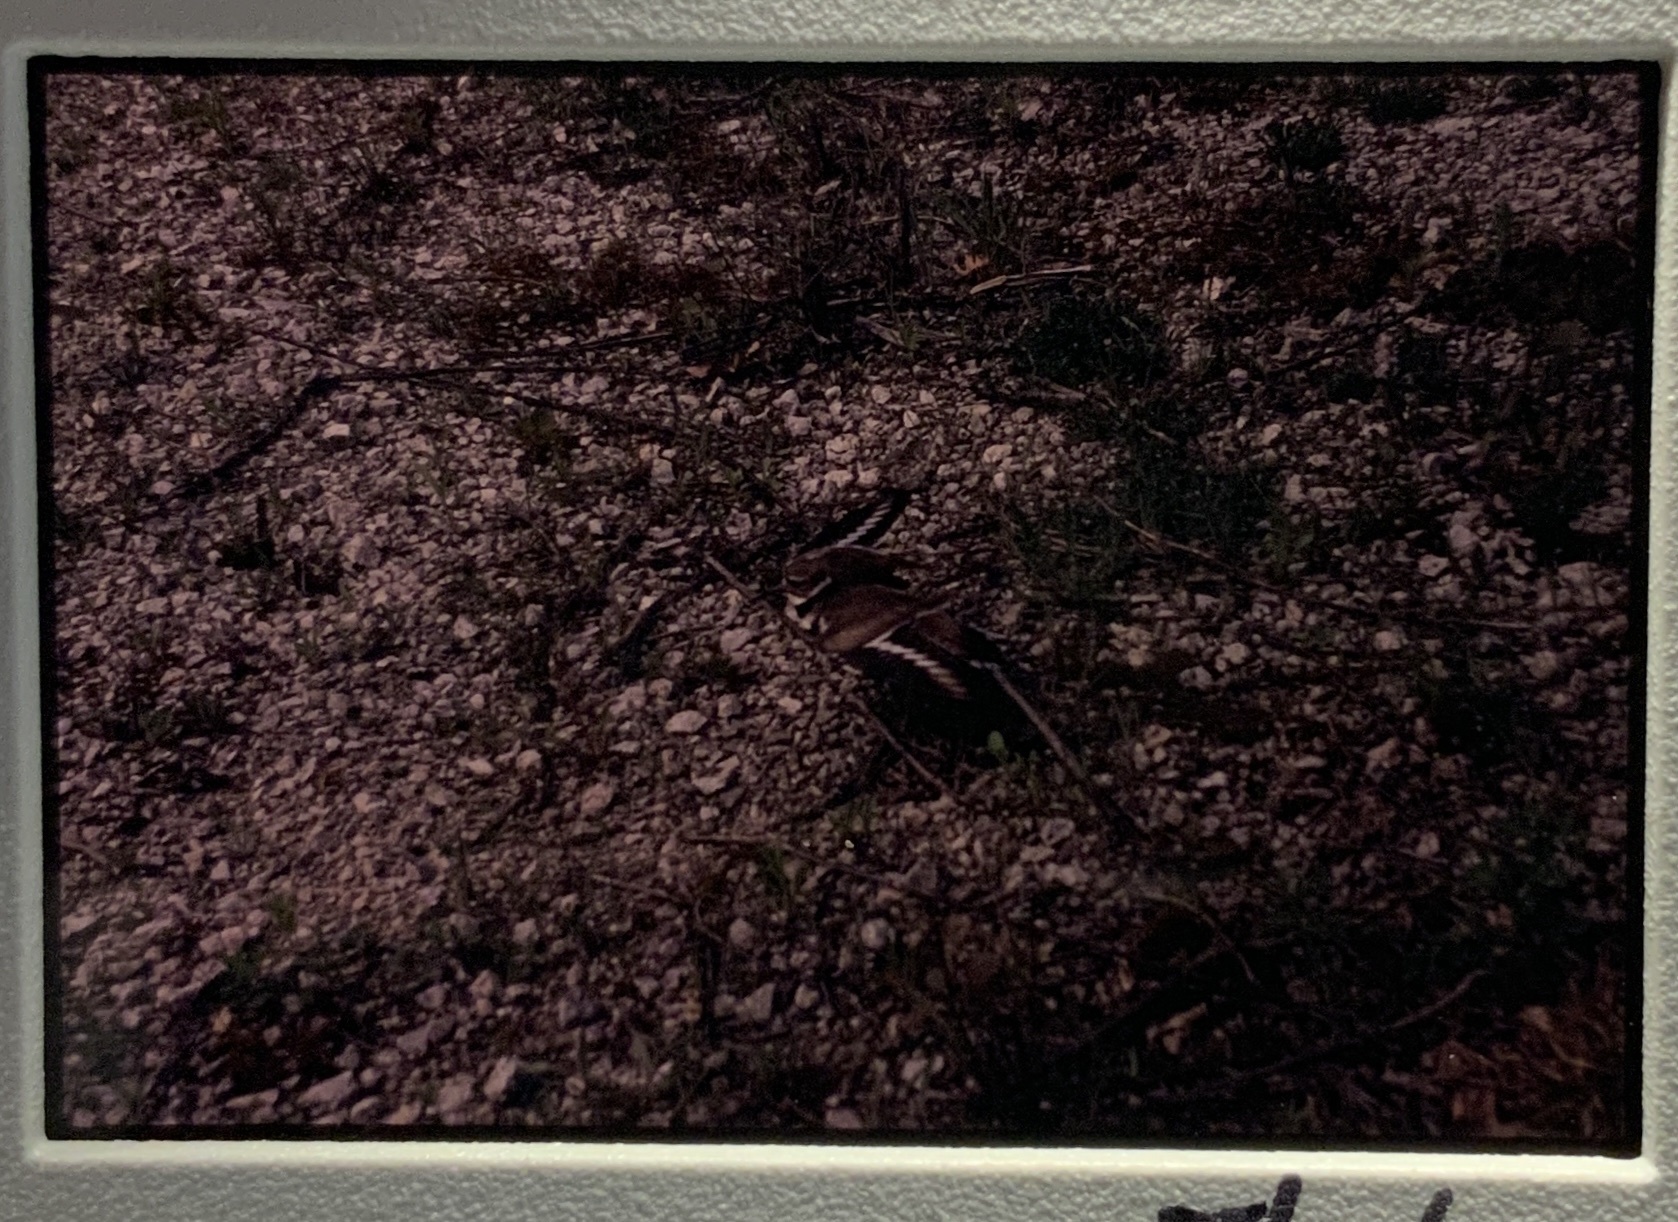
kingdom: Animalia
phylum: Chordata
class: Aves
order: Charadriiformes
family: Charadriidae
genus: Charadrius
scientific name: Charadrius vociferus
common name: Killdeer
